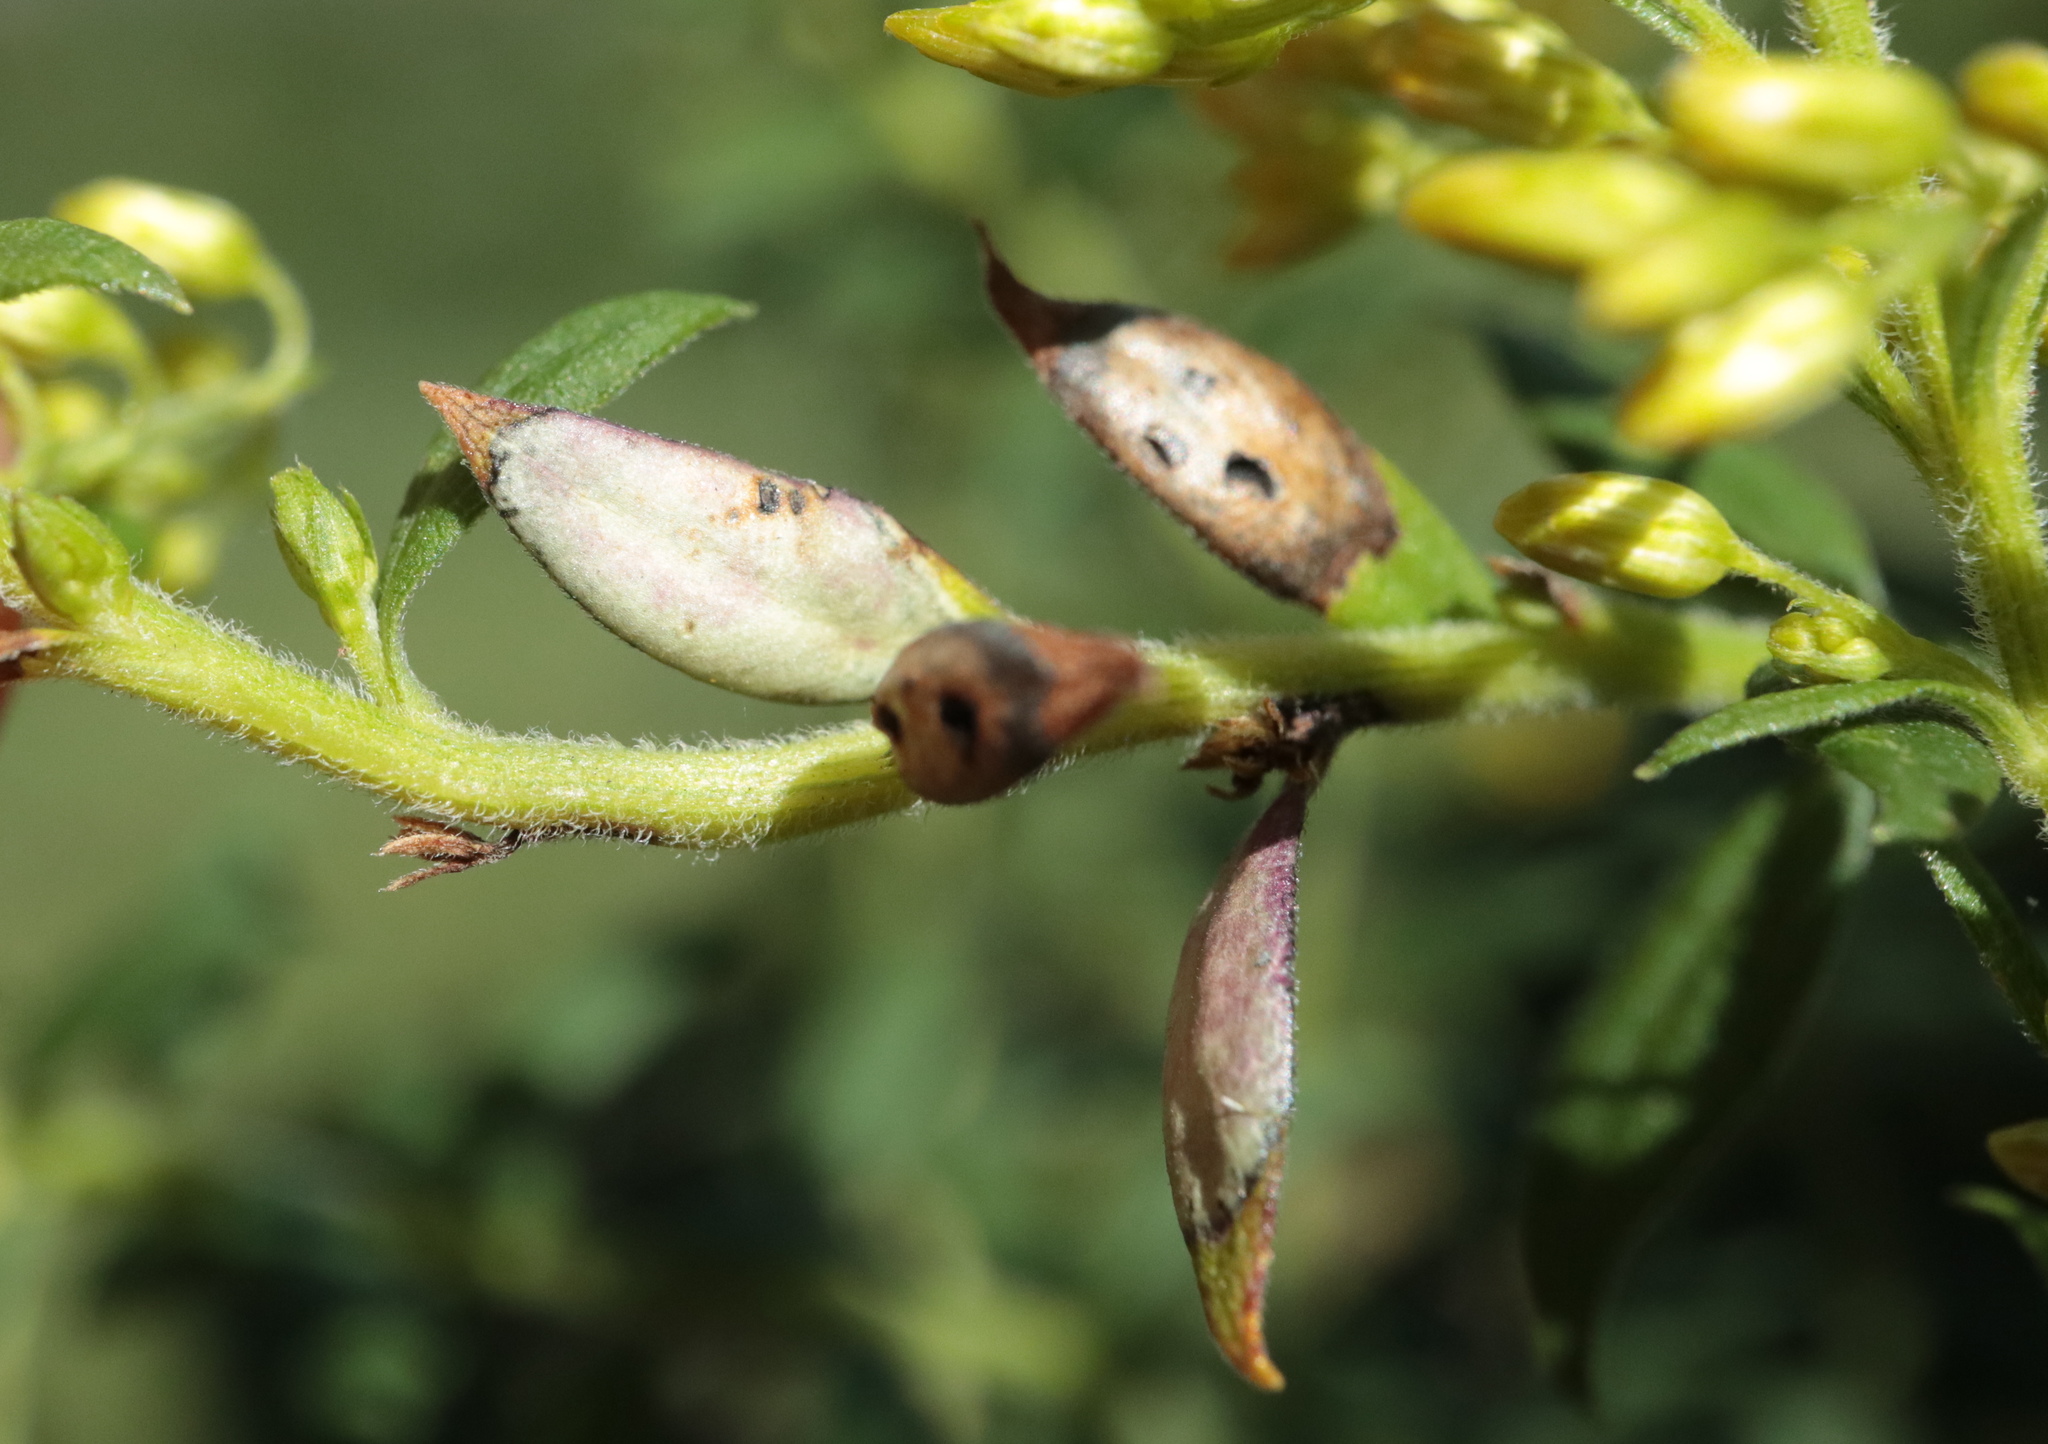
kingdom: Animalia
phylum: Arthropoda
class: Insecta
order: Diptera
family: Cecidomyiidae
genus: Asteromyia
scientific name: Asteromyia carbonifera
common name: Carbonifera goldenrod gall midge
